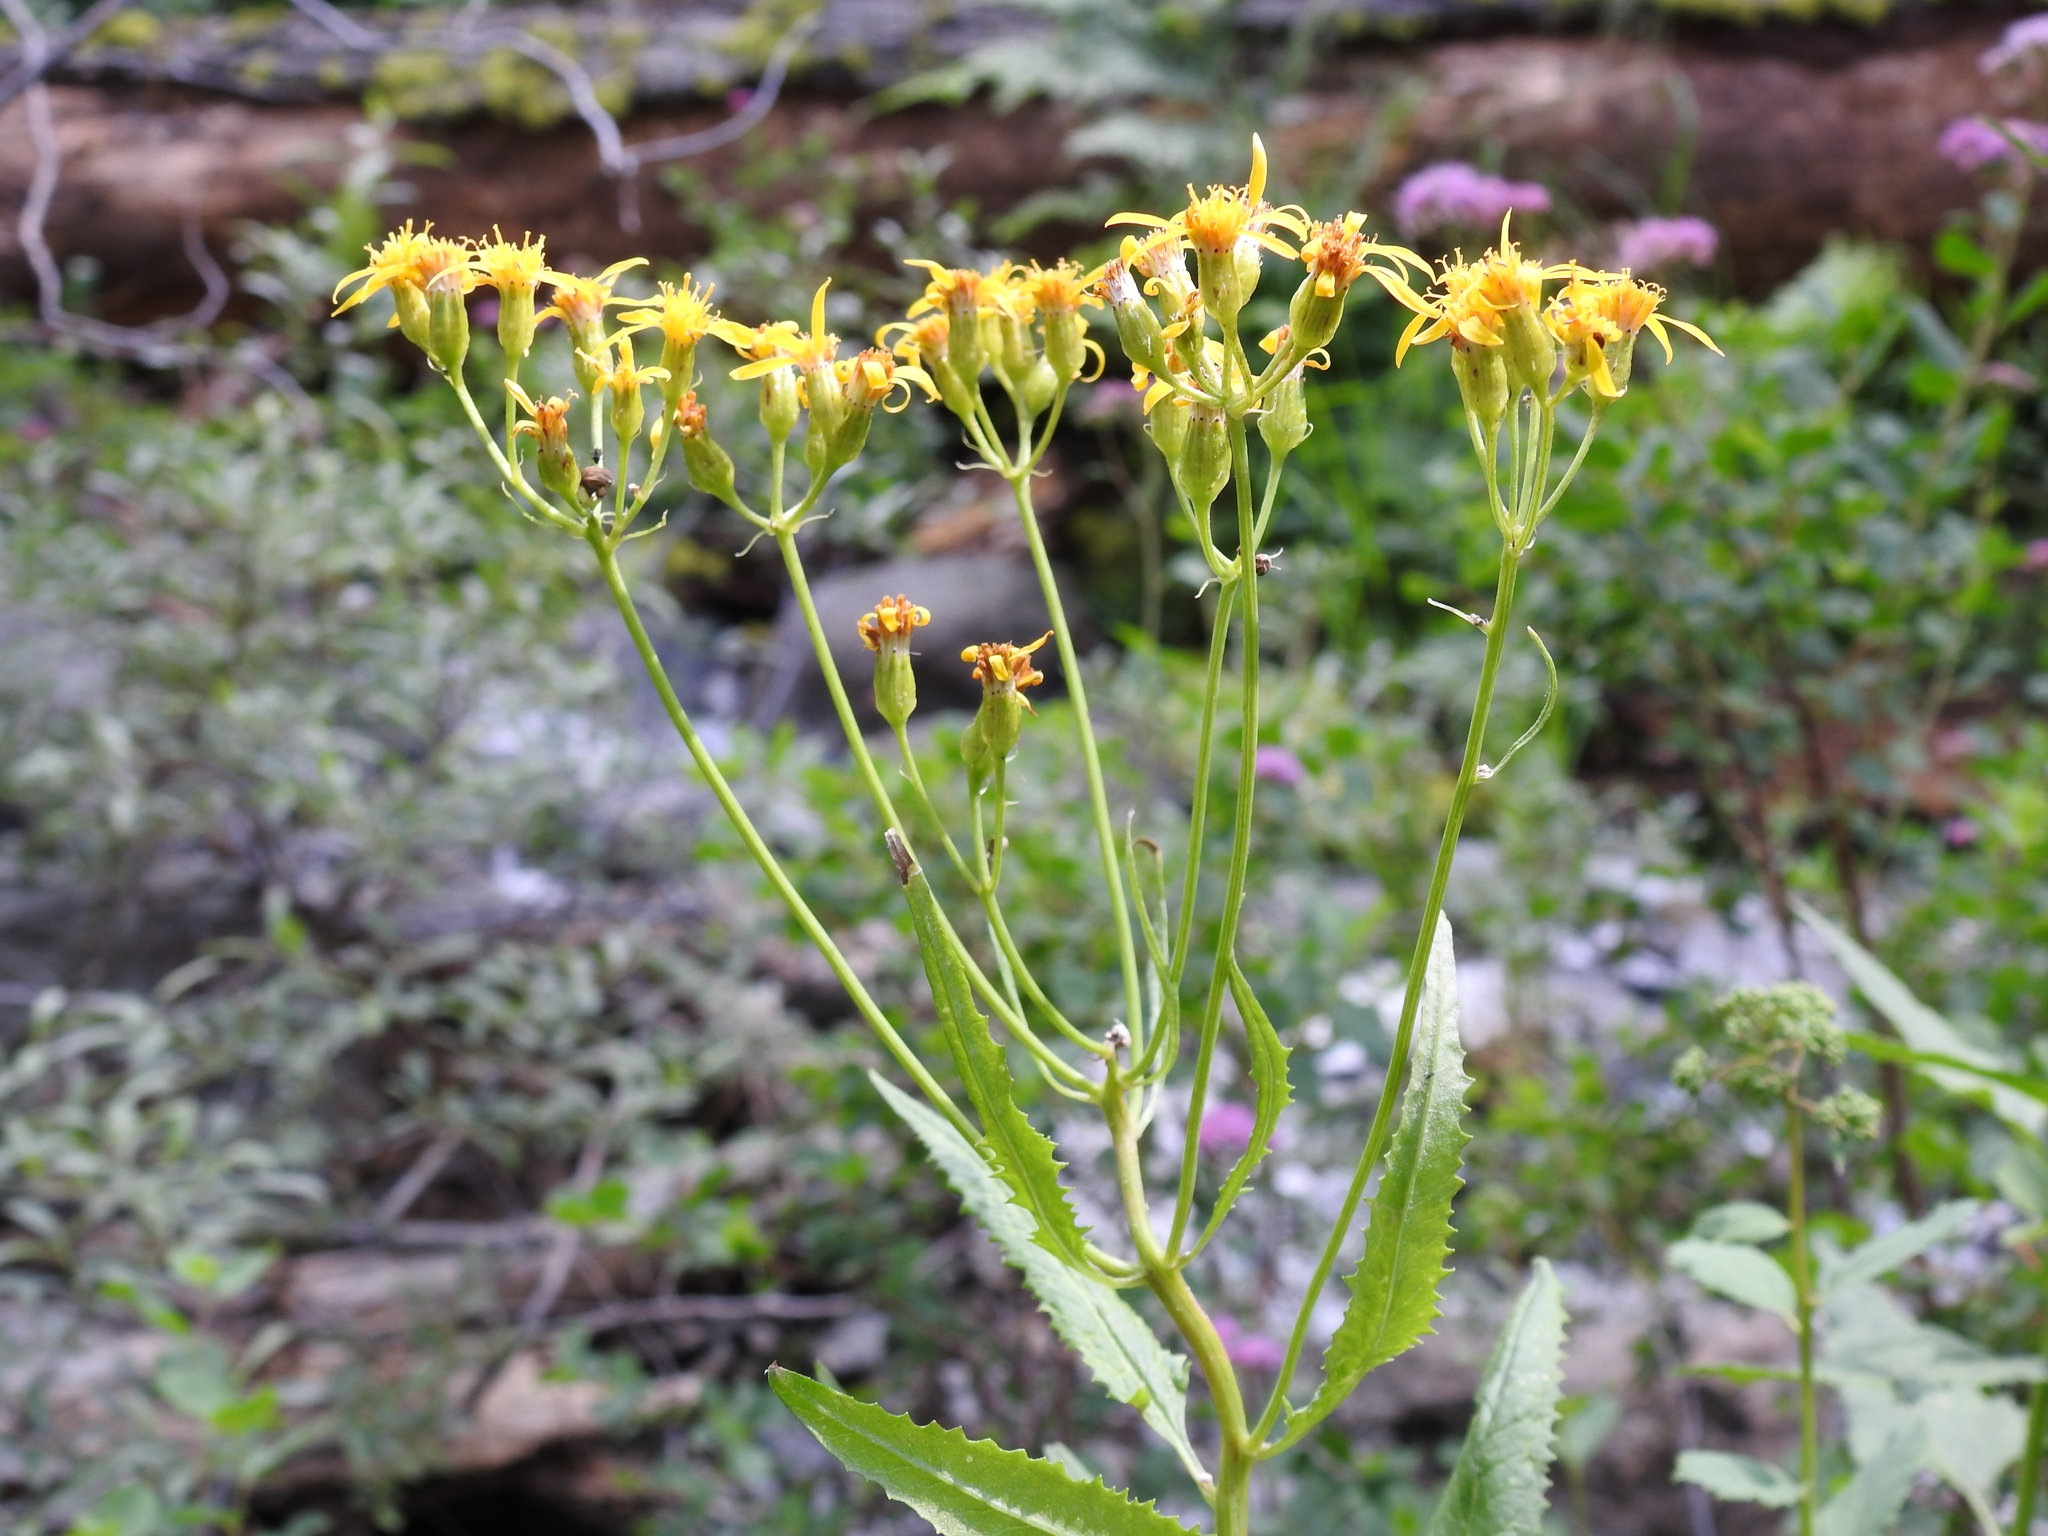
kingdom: Plantae
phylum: Tracheophyta
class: Magnoliopsida
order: Asterales
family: Asteraceae
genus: Senecio
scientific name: Senecio triangularis
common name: Arrowleaf butterweed
